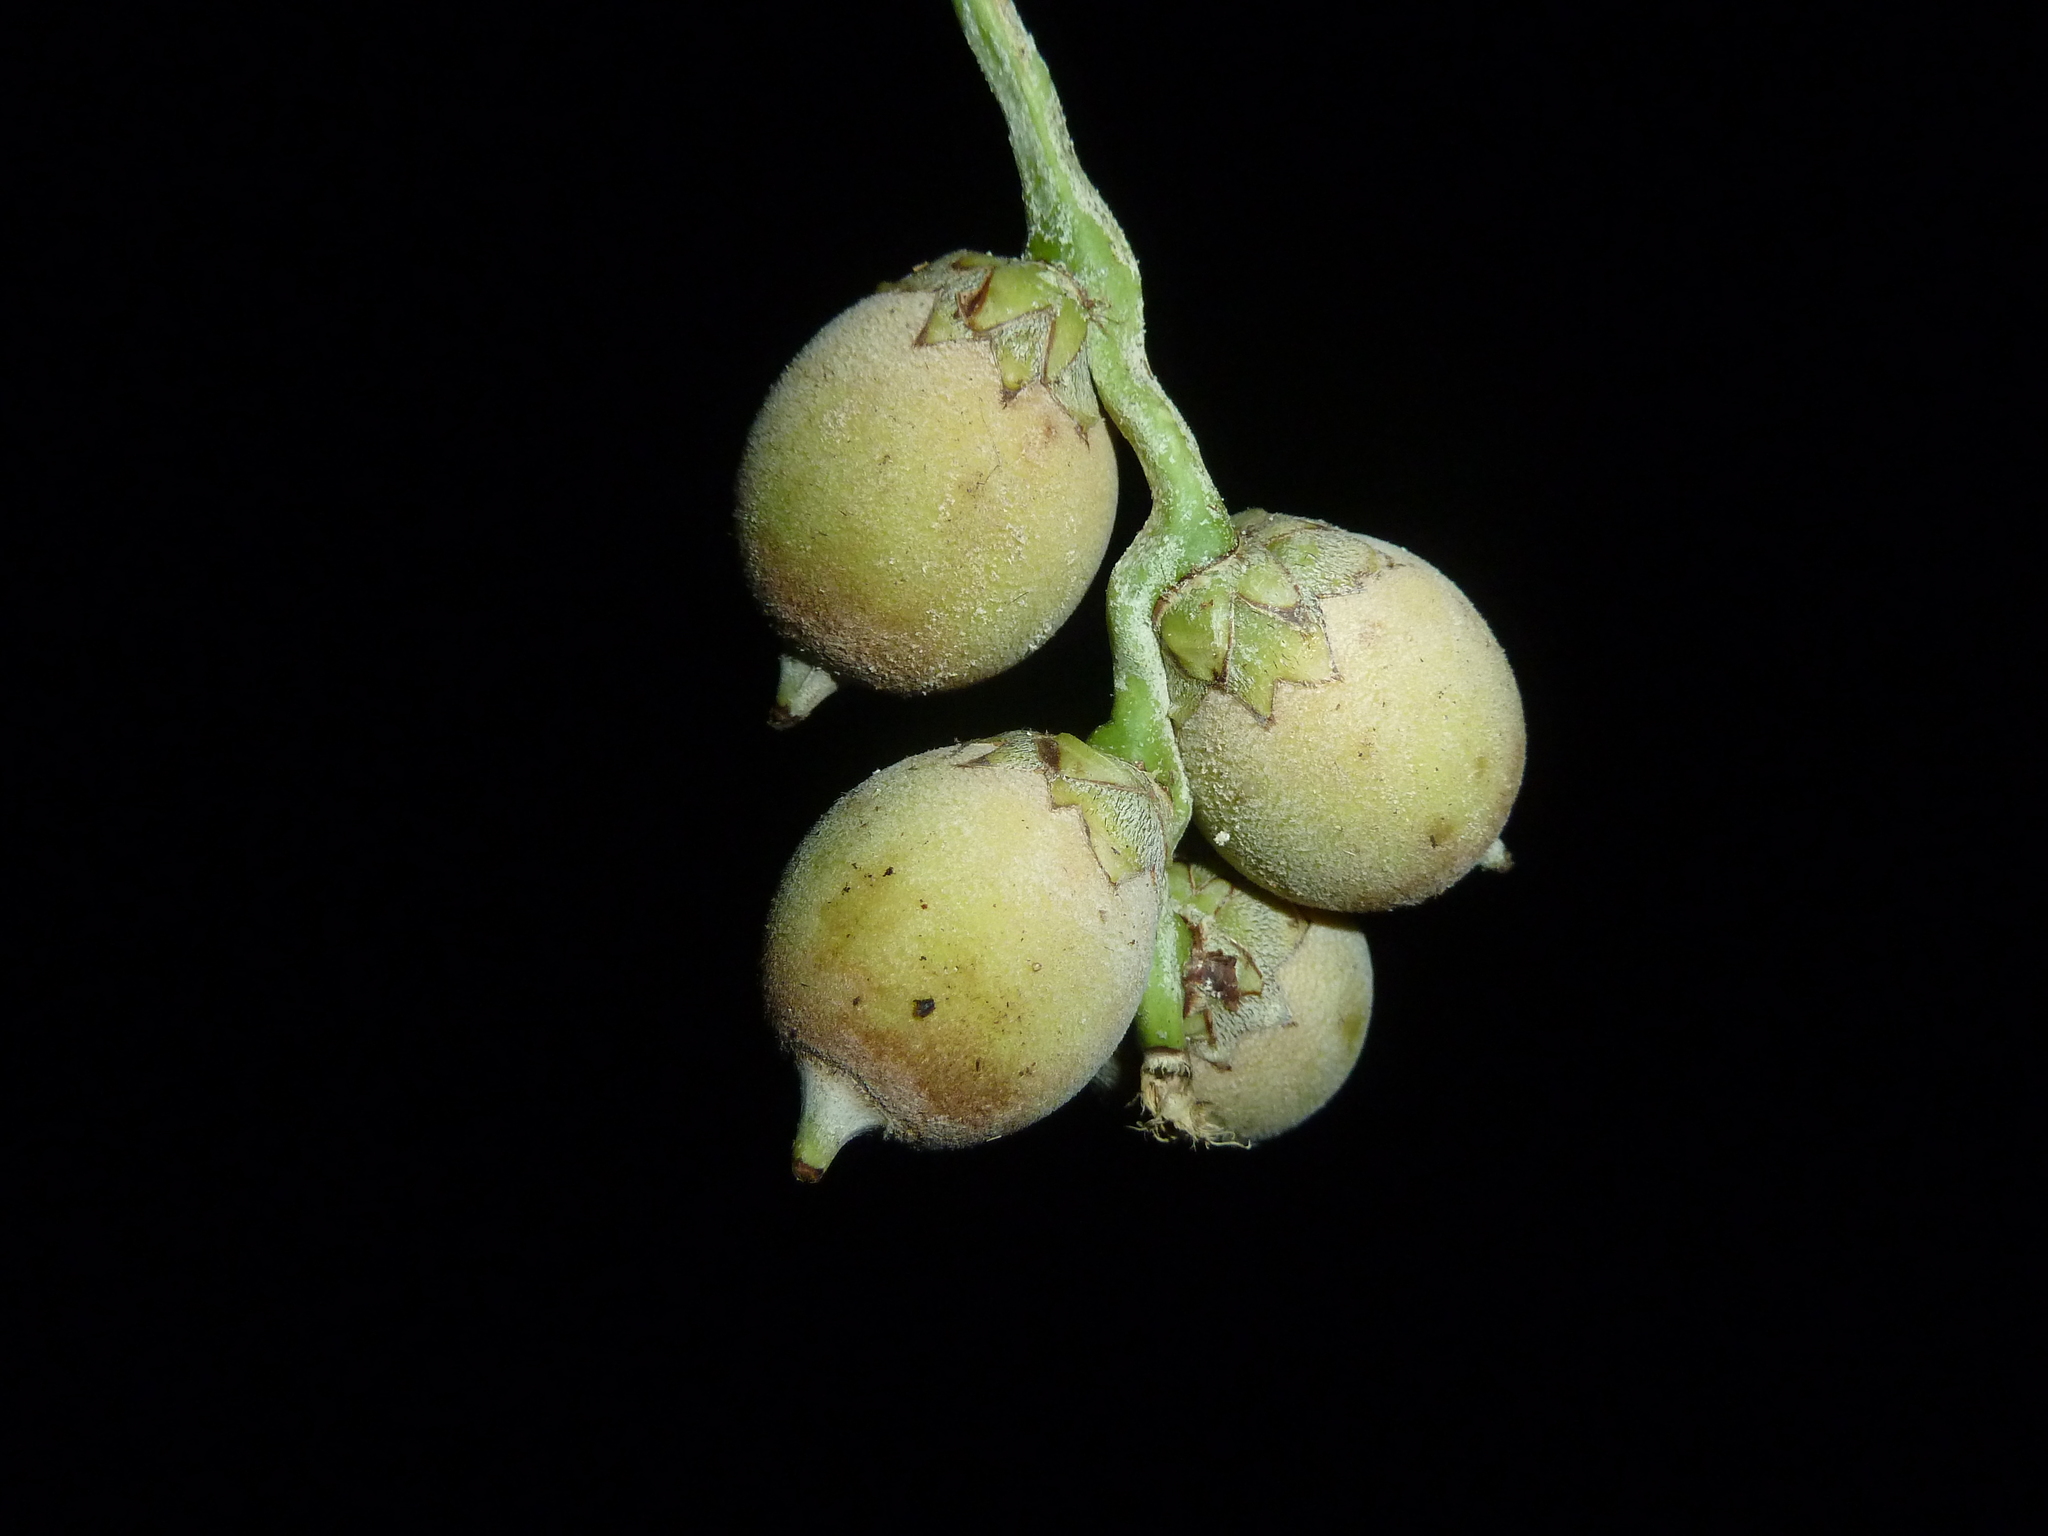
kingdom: Plantae
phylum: Tracheophyta
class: Liliopsida
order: Arecales
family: Arecaceae
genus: Astrocaryum
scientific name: Astrocaryum standleyanum
